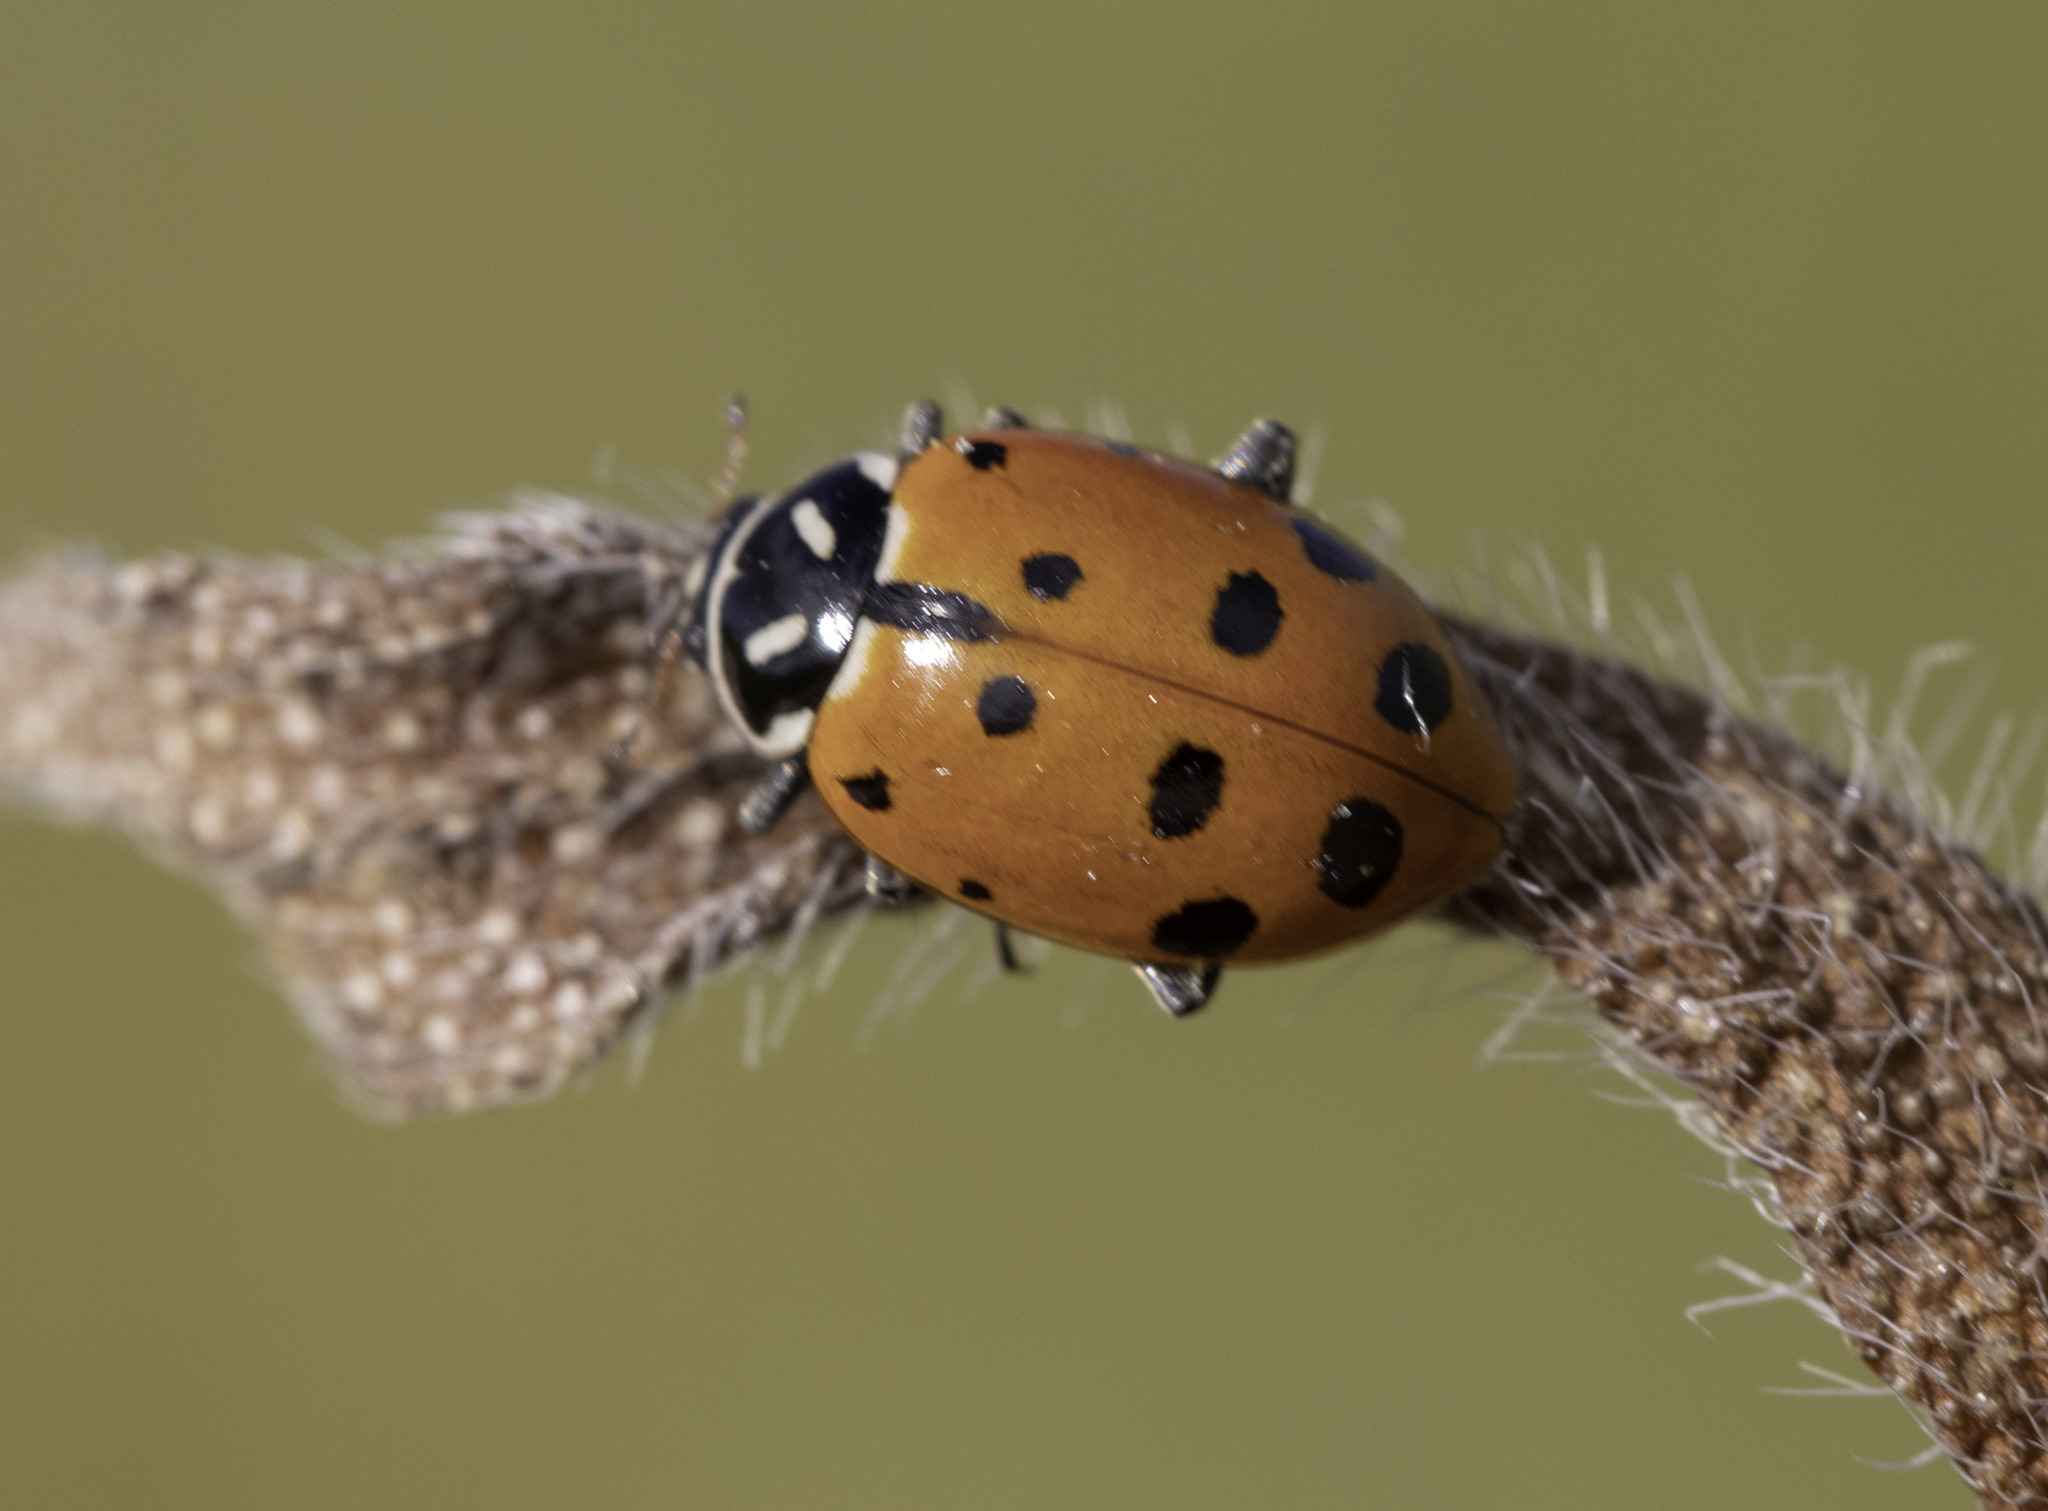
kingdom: Animalia
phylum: Arthropoda
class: Insecta
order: Coleoptera
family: Coccinellidae
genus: Hippodamia
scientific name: Hippodamia convergens
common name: Convergent lady beetle
